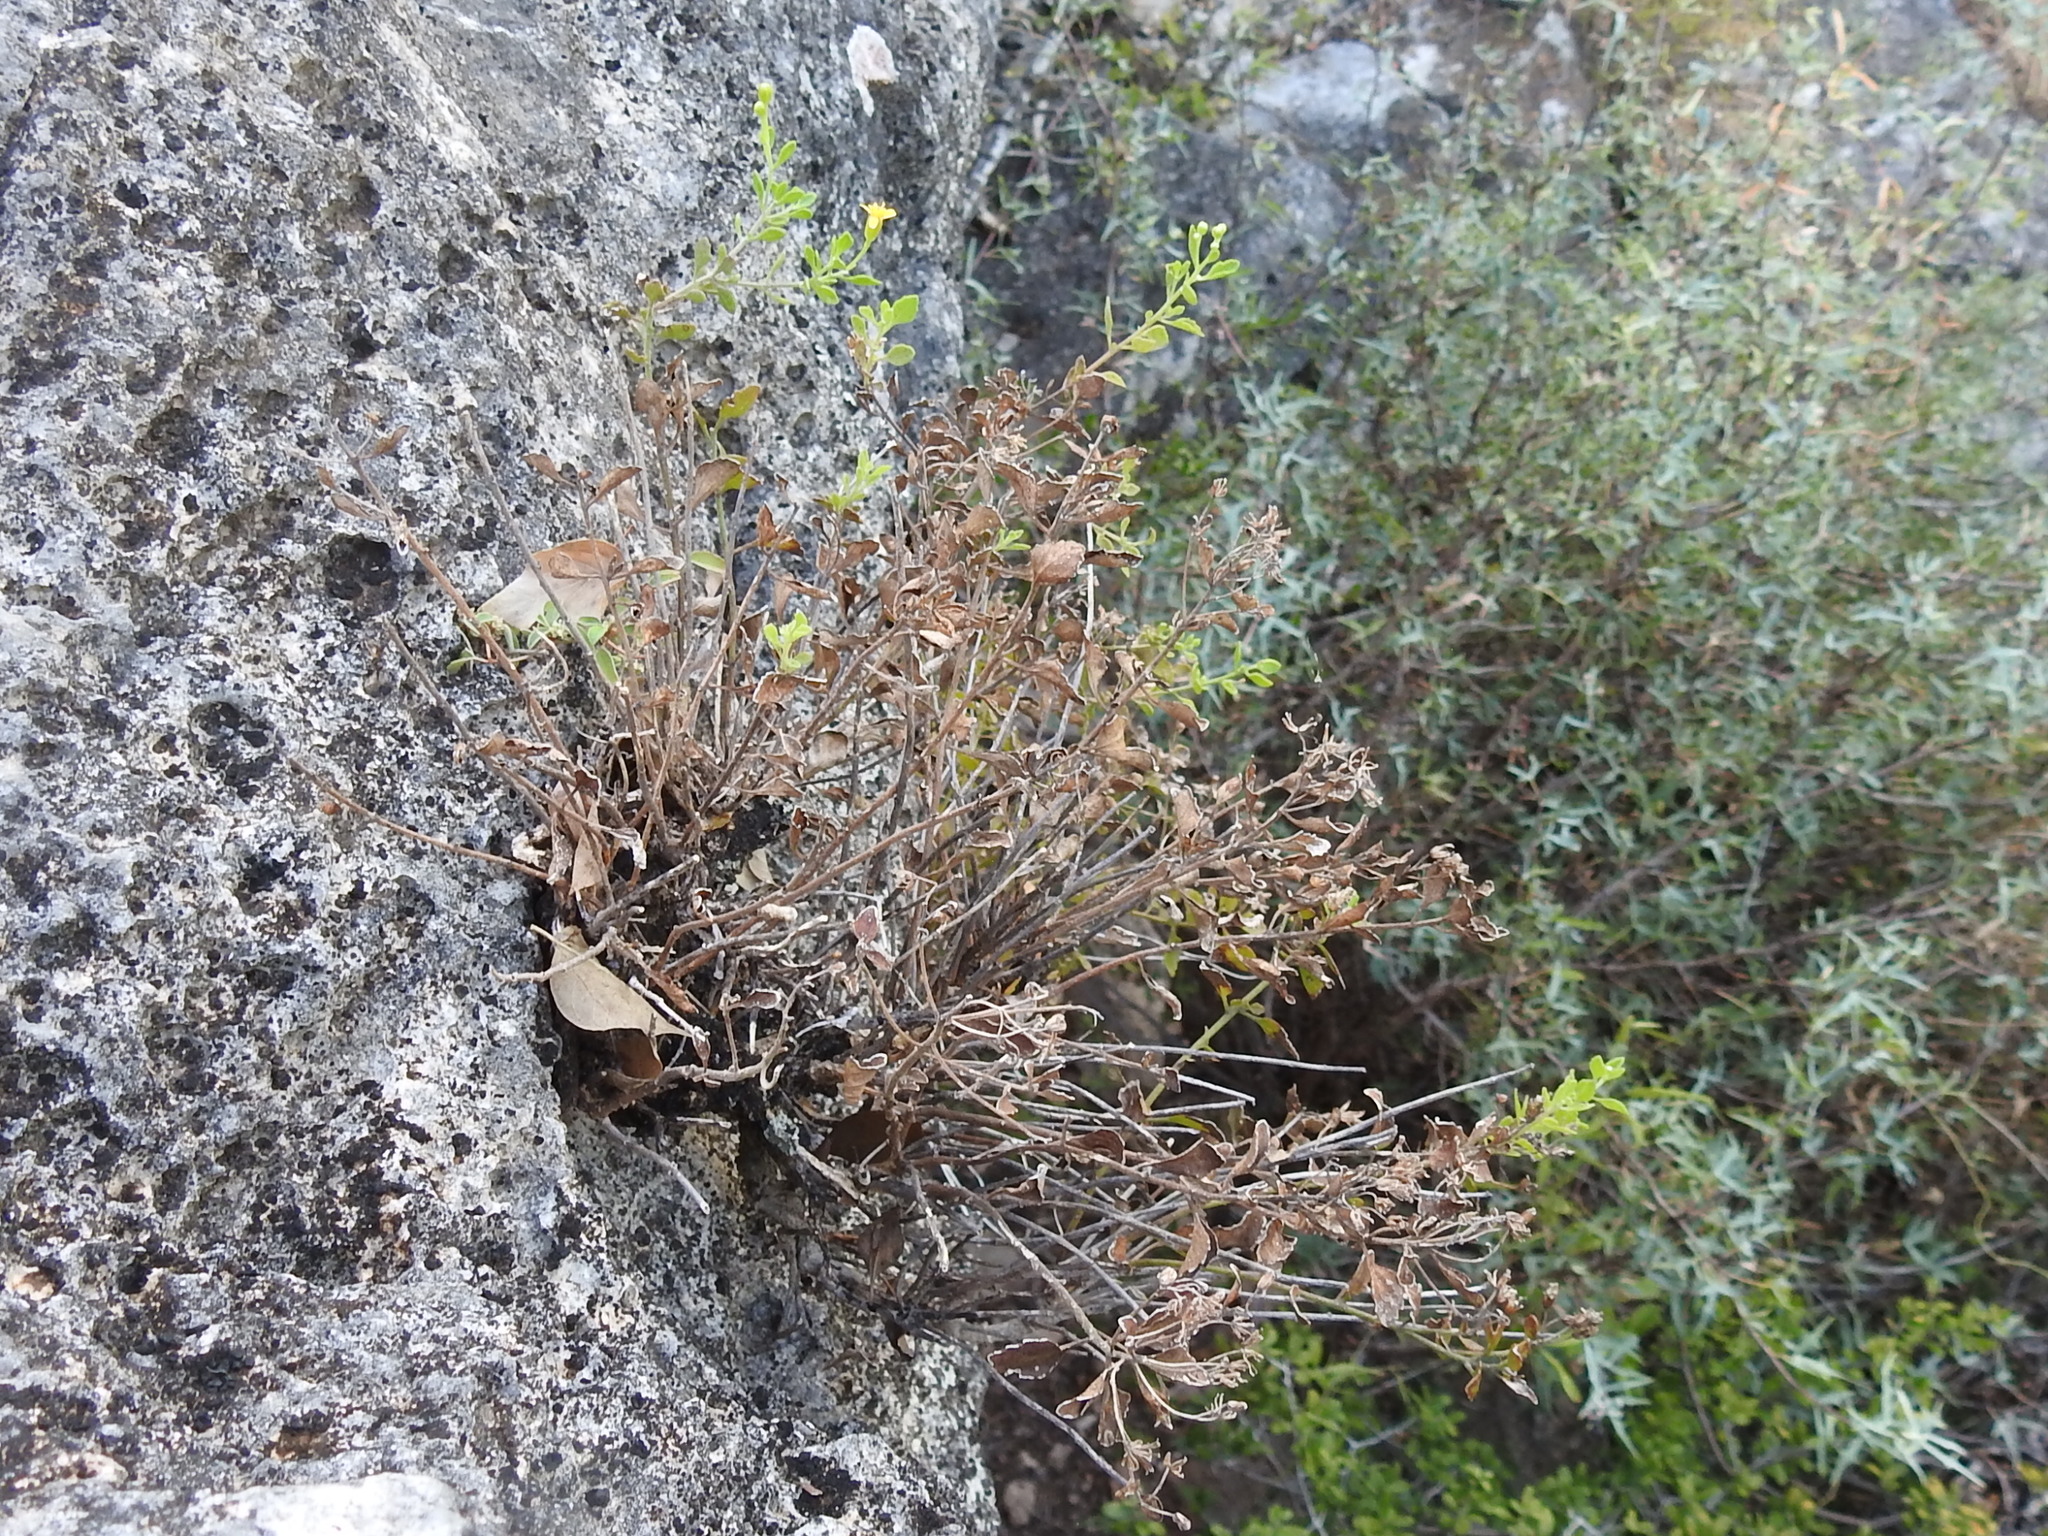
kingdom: Plantae
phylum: Tracheophyta
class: Magnoliopsida
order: Asterales
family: Asteraceae
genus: Laphamia
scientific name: Laphamia lindheimeri
